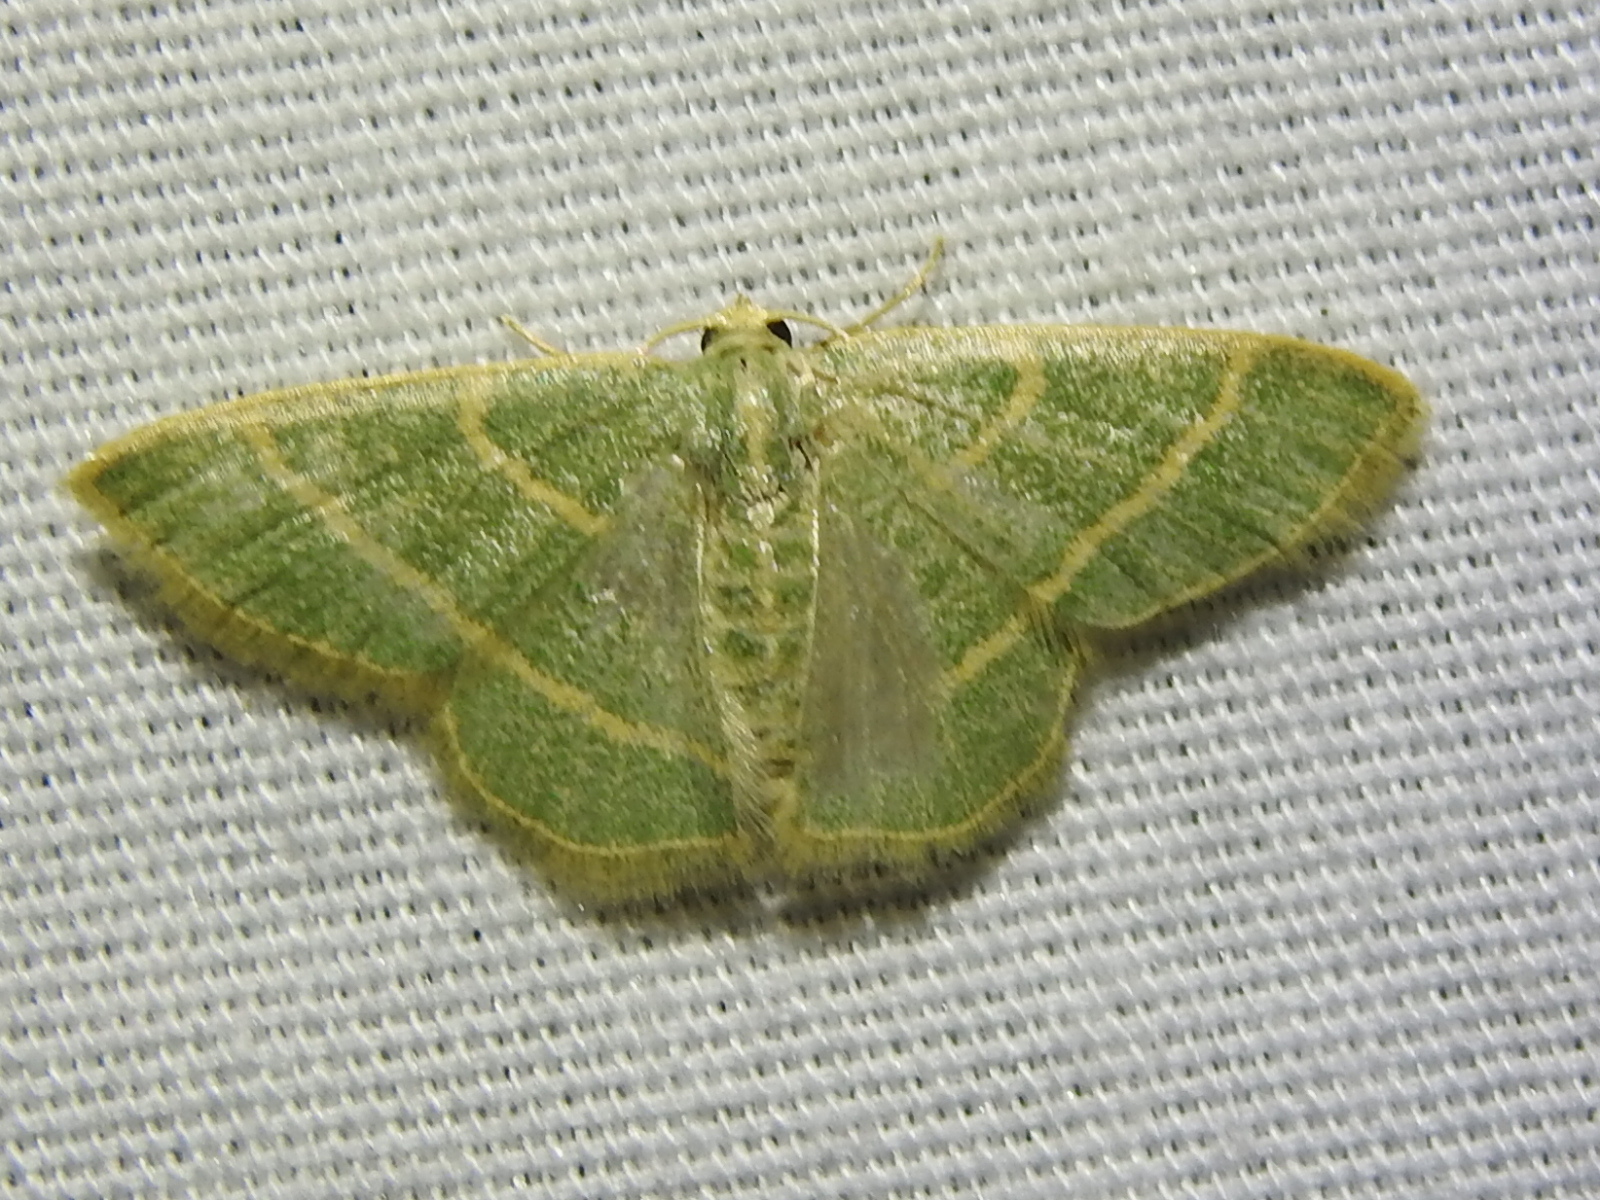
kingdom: Animalia
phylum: Arthropoda
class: Insecta
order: Lepidoptera
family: Geometridae
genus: Chlorochlamys
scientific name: Chlorochlamys chloroleucaria
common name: Blackberry looper
